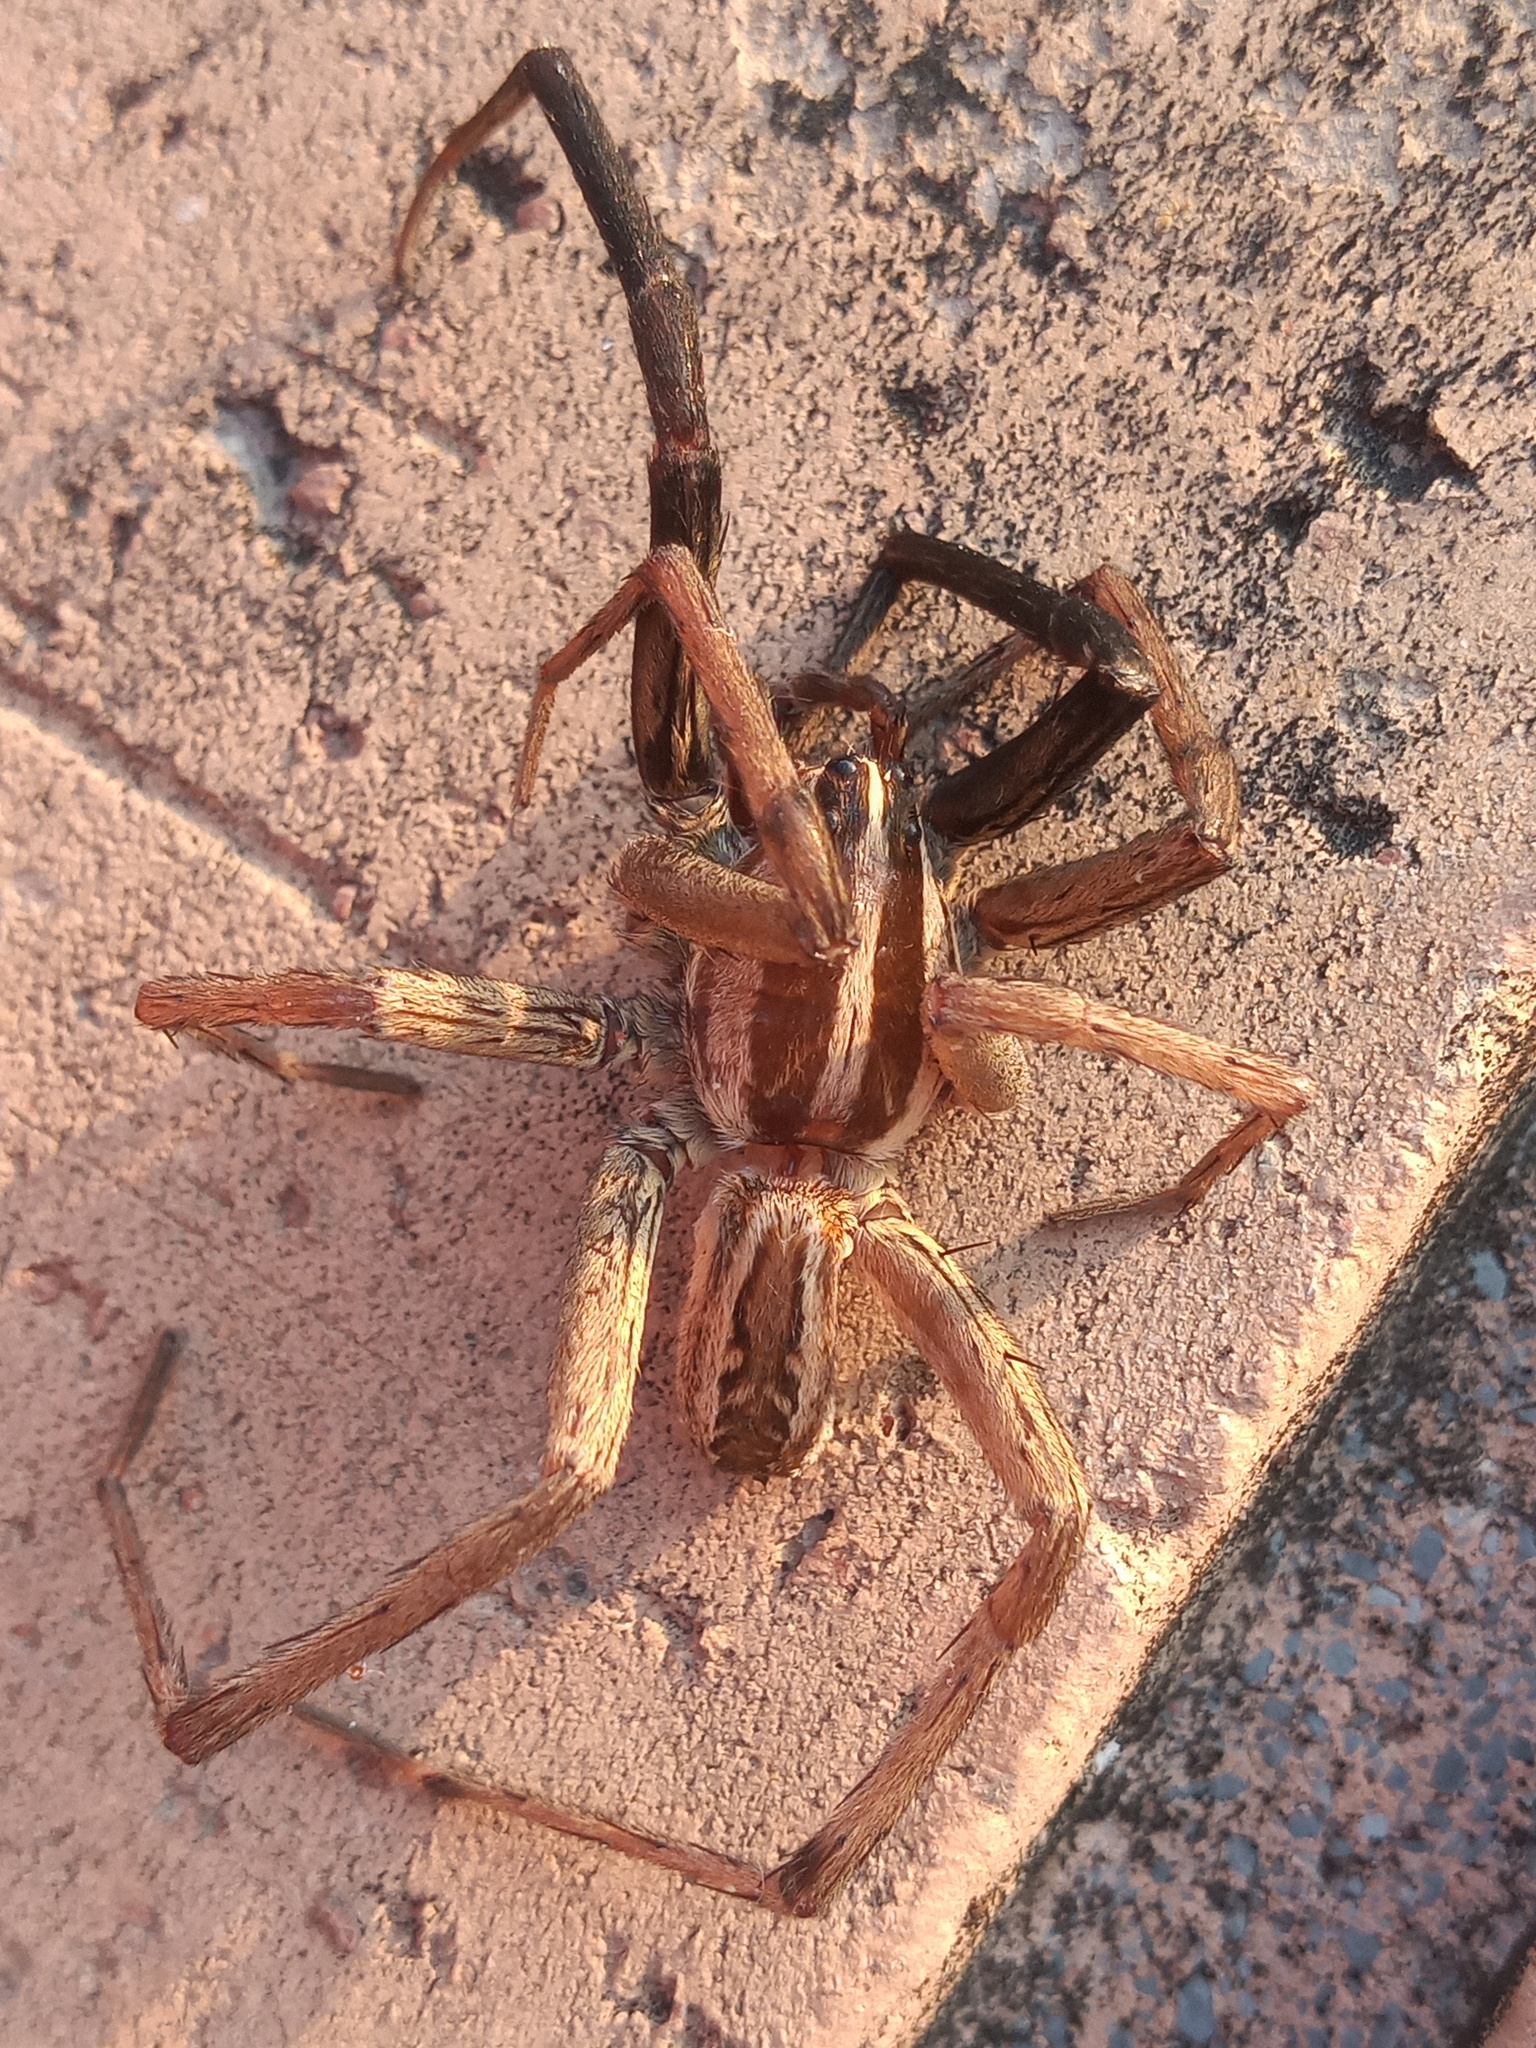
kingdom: Animalia
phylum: Arthropoda
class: Arachnida
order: Araneae
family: Lycosidae
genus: Rabidosa
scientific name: Rabidosa rabida
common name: Rabid wolf spider
